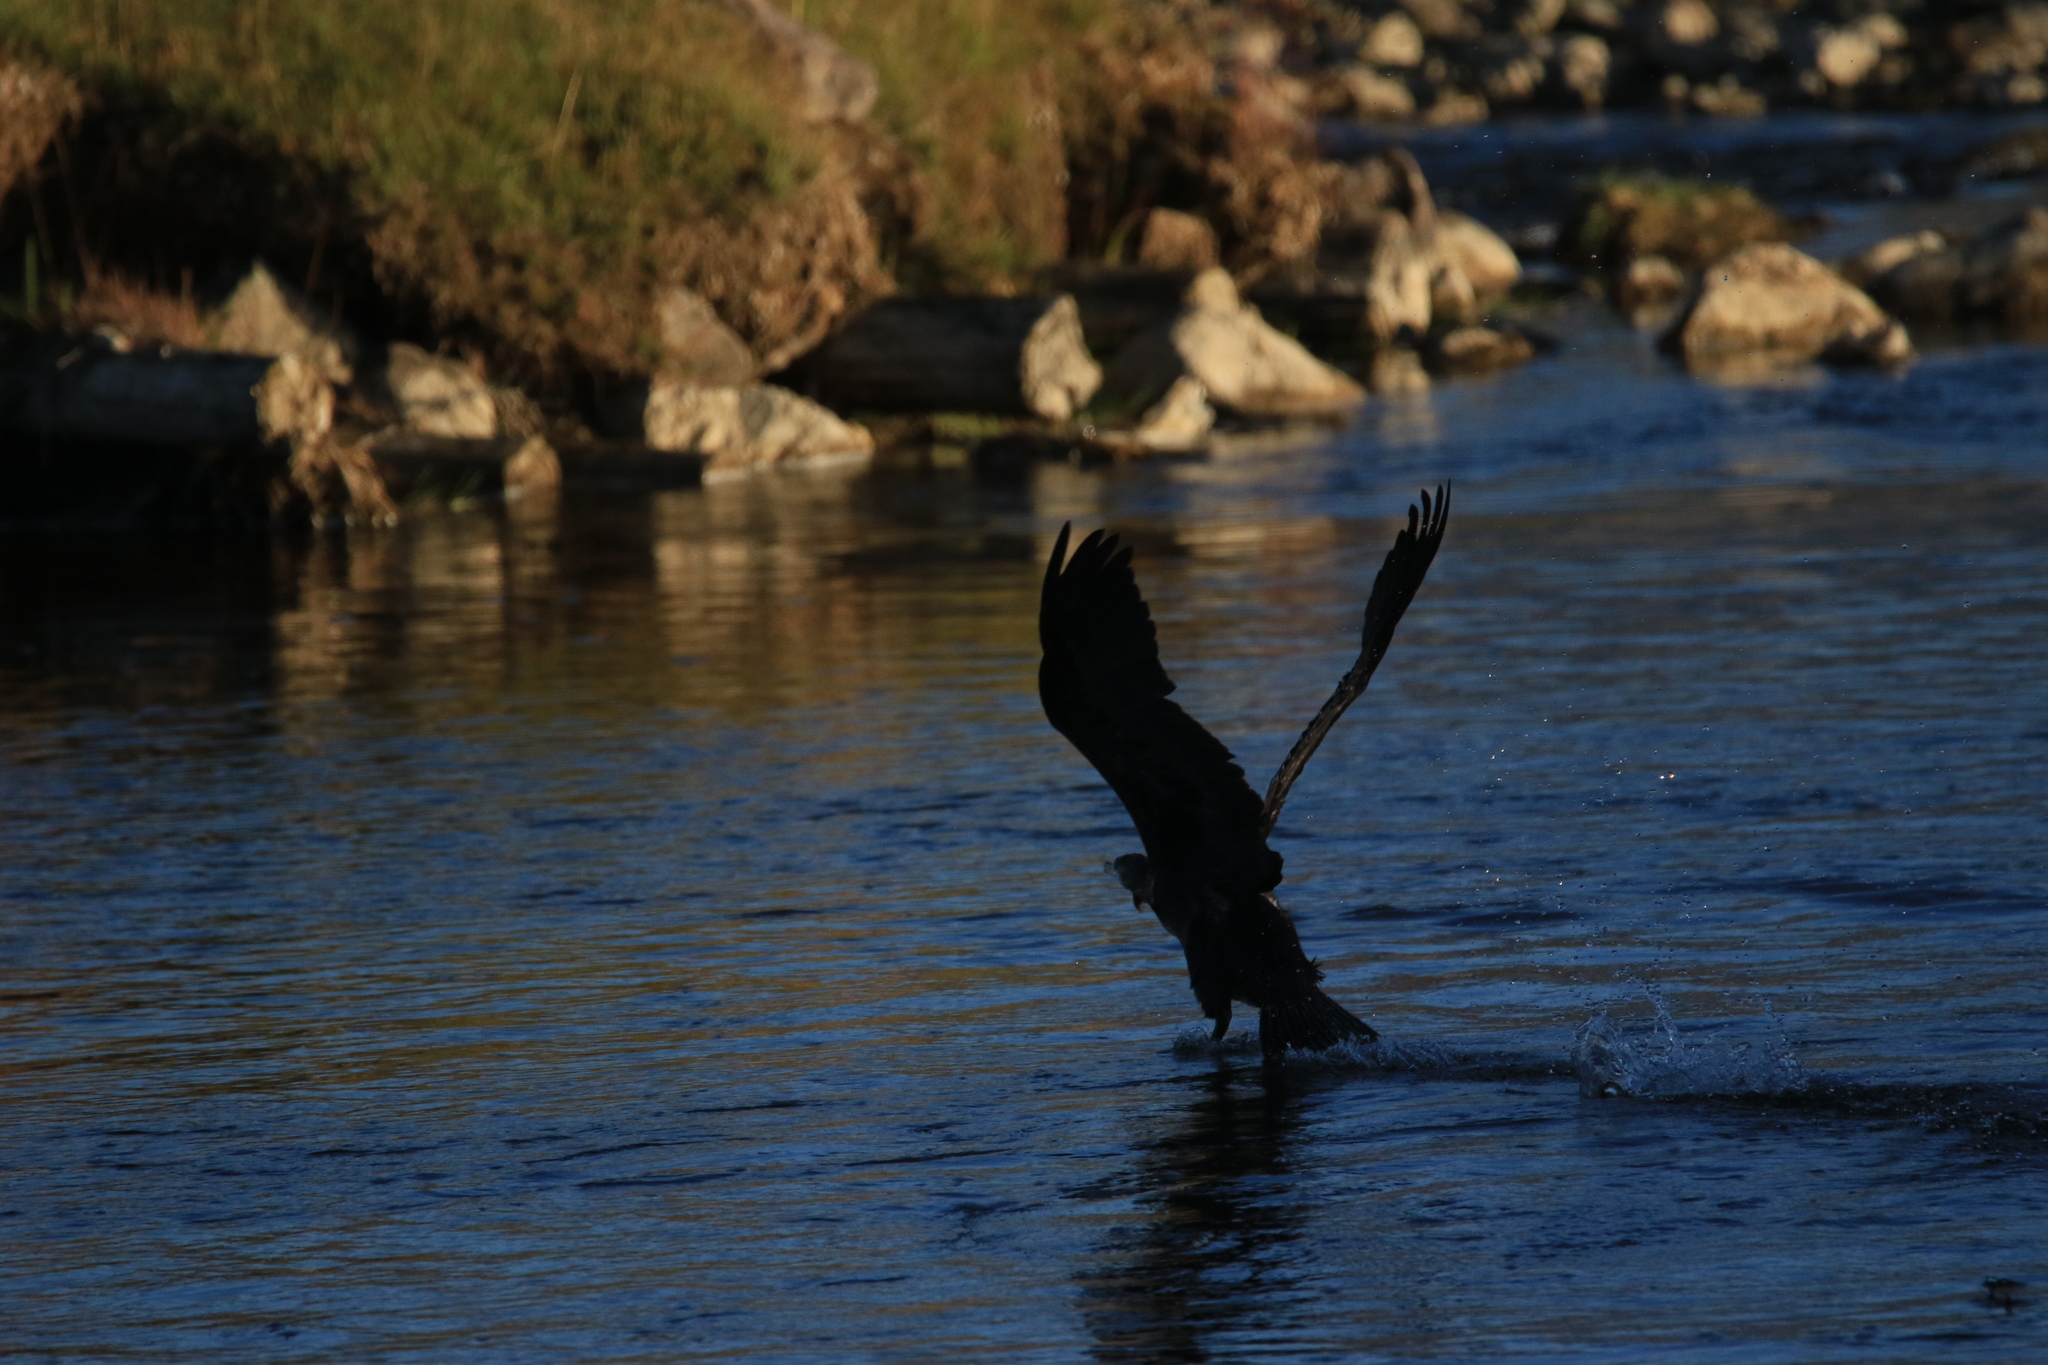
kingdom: Animalia
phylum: Chordata
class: Aves
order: Suliformes
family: Phalacrocoracidae
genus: Phalacrocorax
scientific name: Phalacrocorax carbo
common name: Great cormorant
